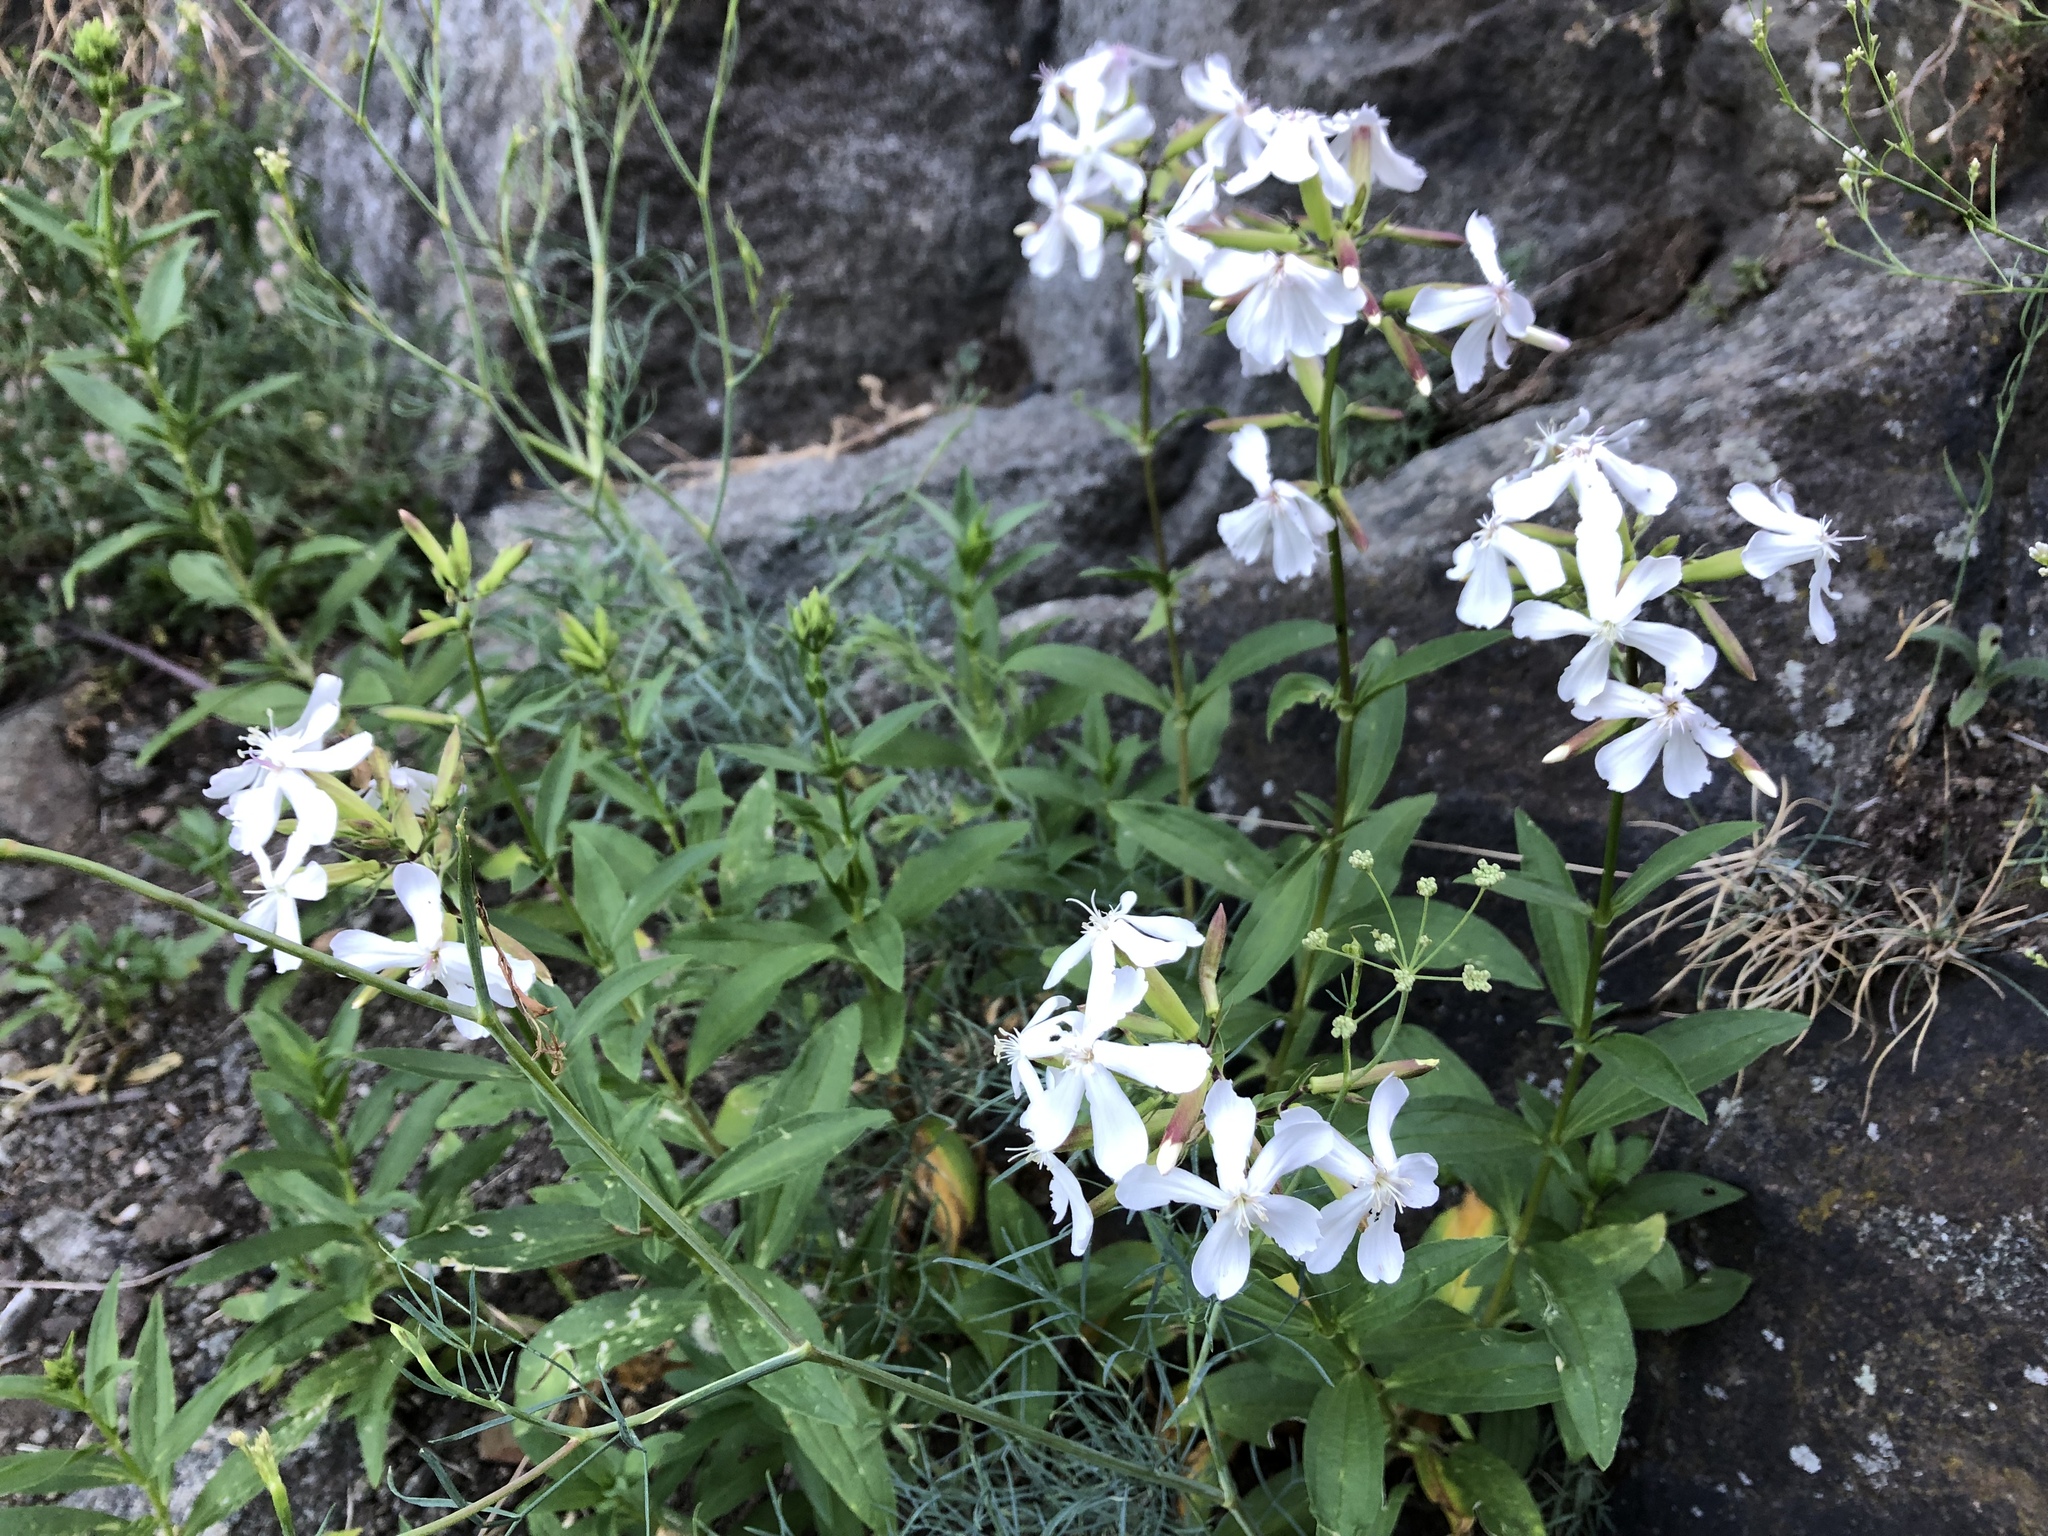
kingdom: Plantae
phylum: Tracheophyta
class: Magnoliopsida
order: Caryophyllales
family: Caryophyllaceae
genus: Saponaria
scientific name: Saponaria officinalis
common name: Soapwort
